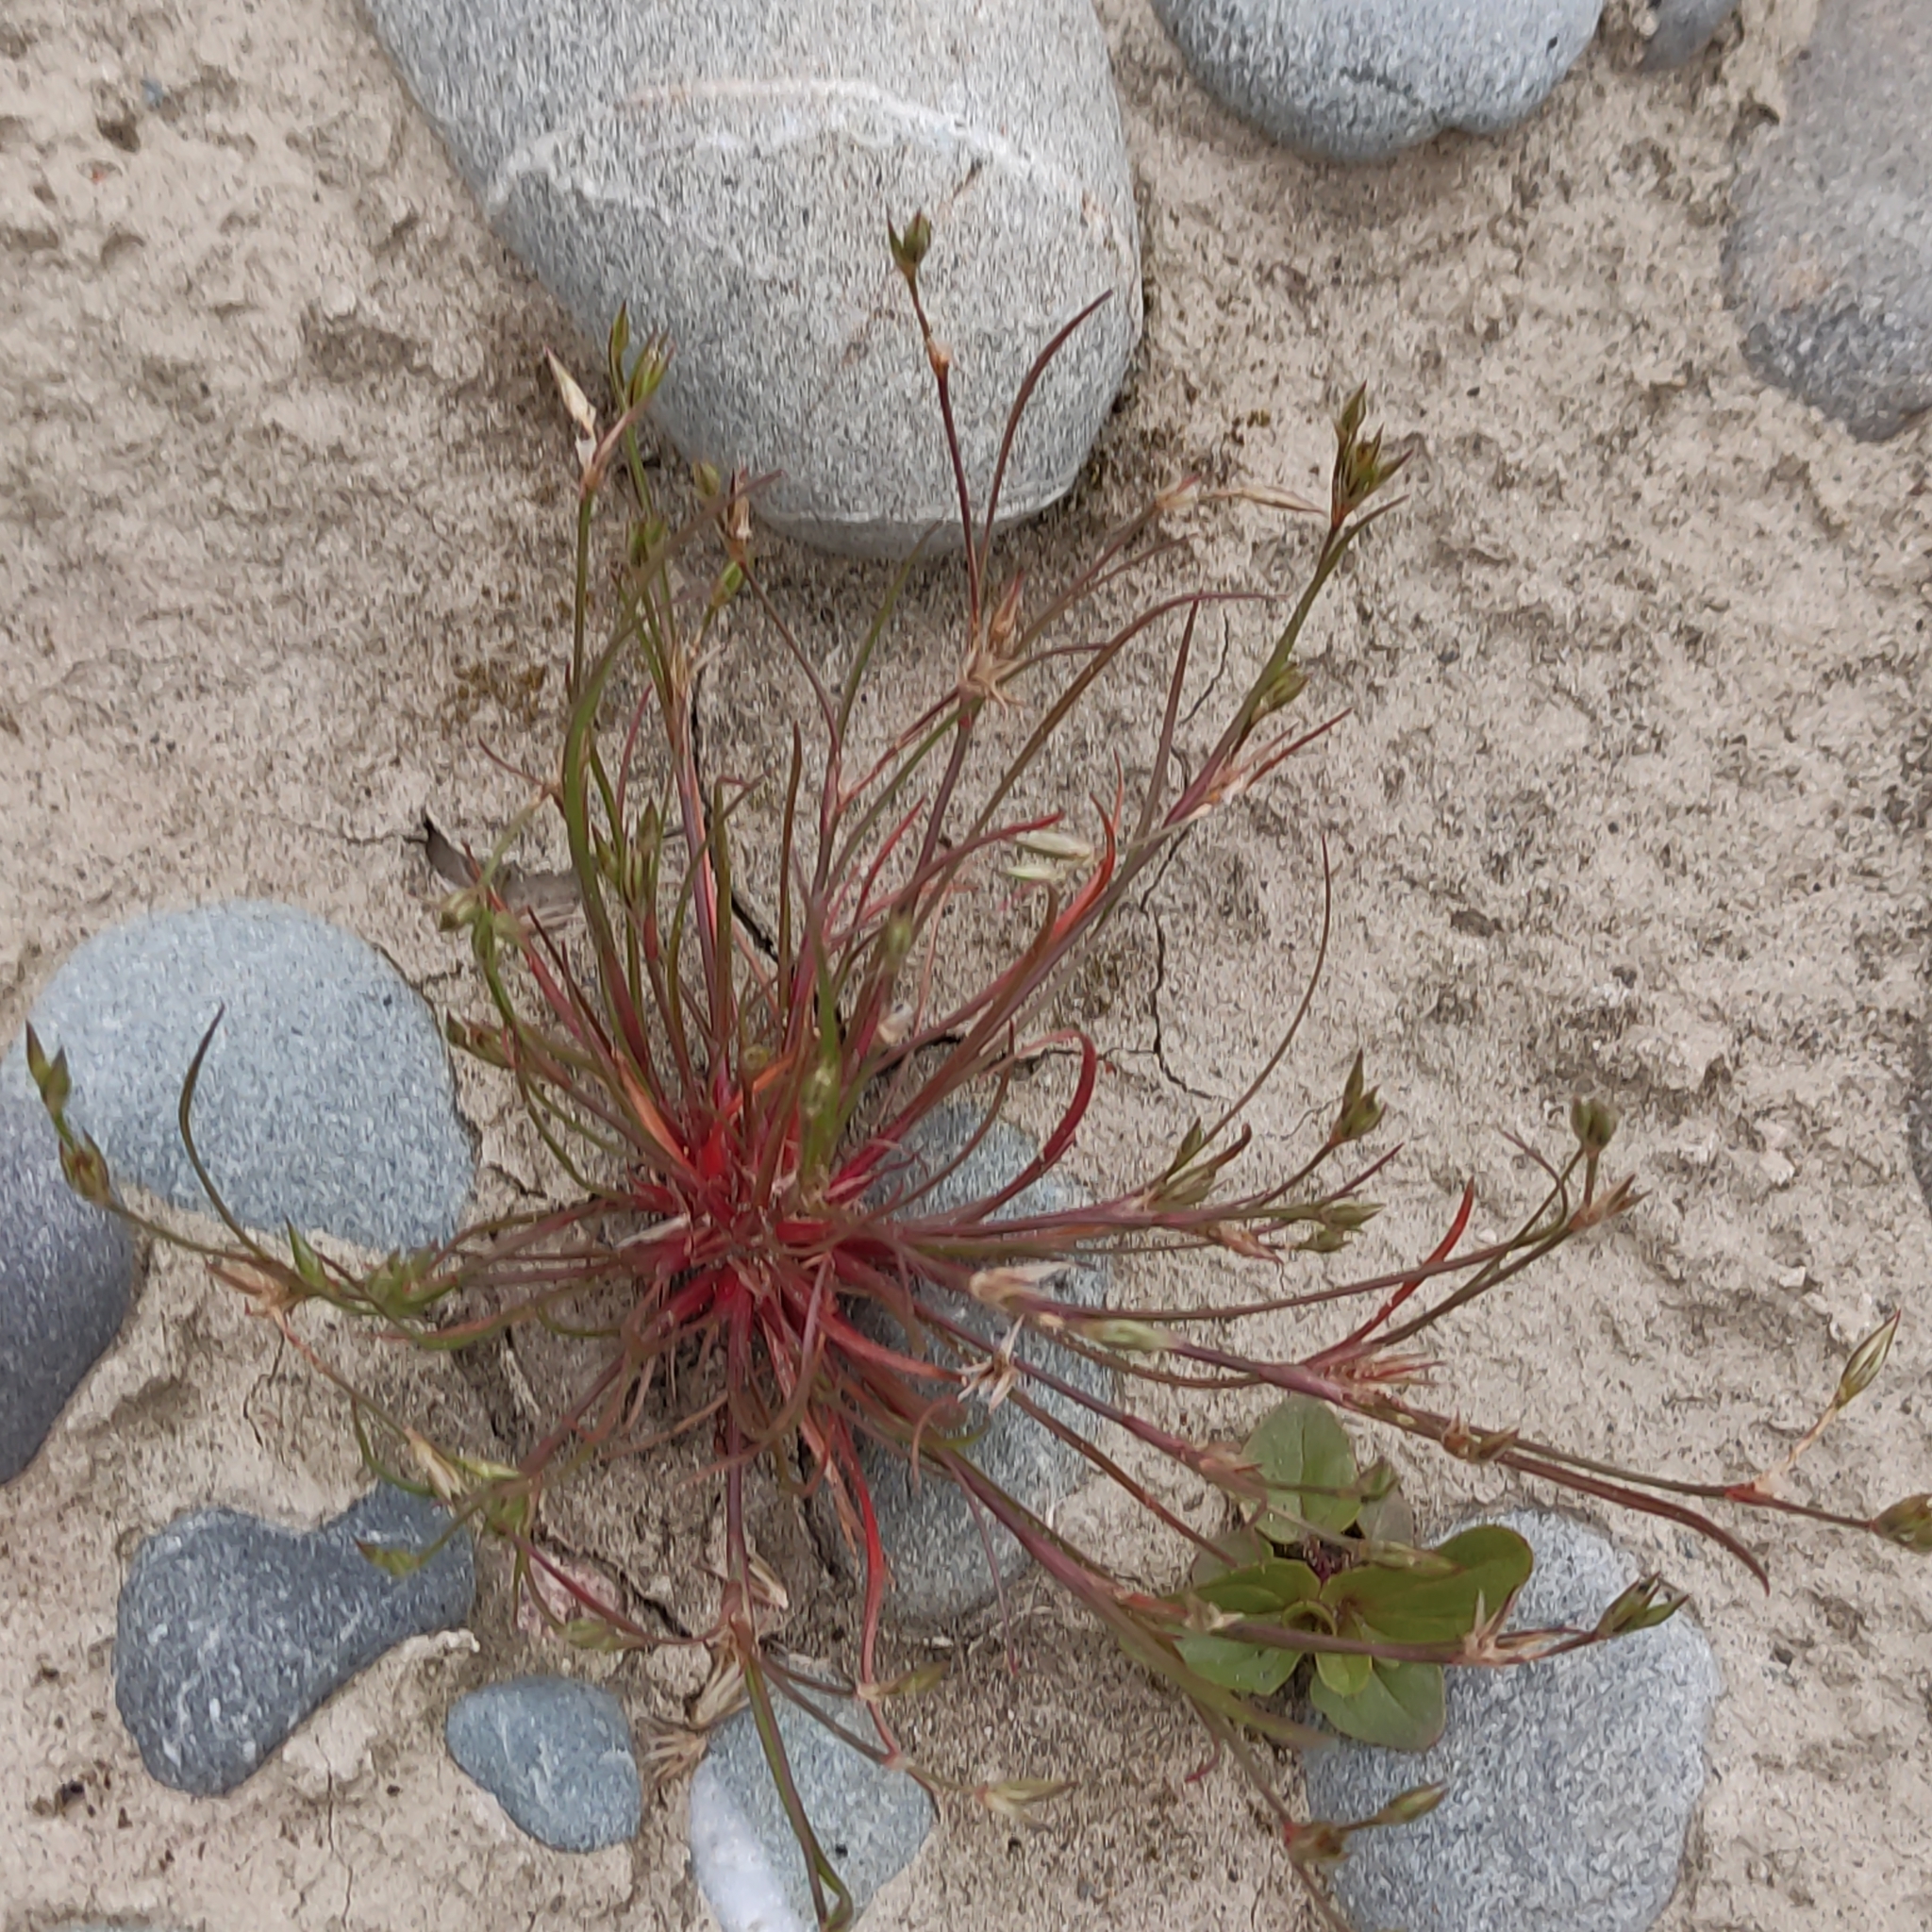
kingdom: Plantae
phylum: Tracheophyta
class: Liliopsida
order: Poales
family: Juncaceae
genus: Juncus
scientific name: Juncus bufonius
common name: Toad rush
